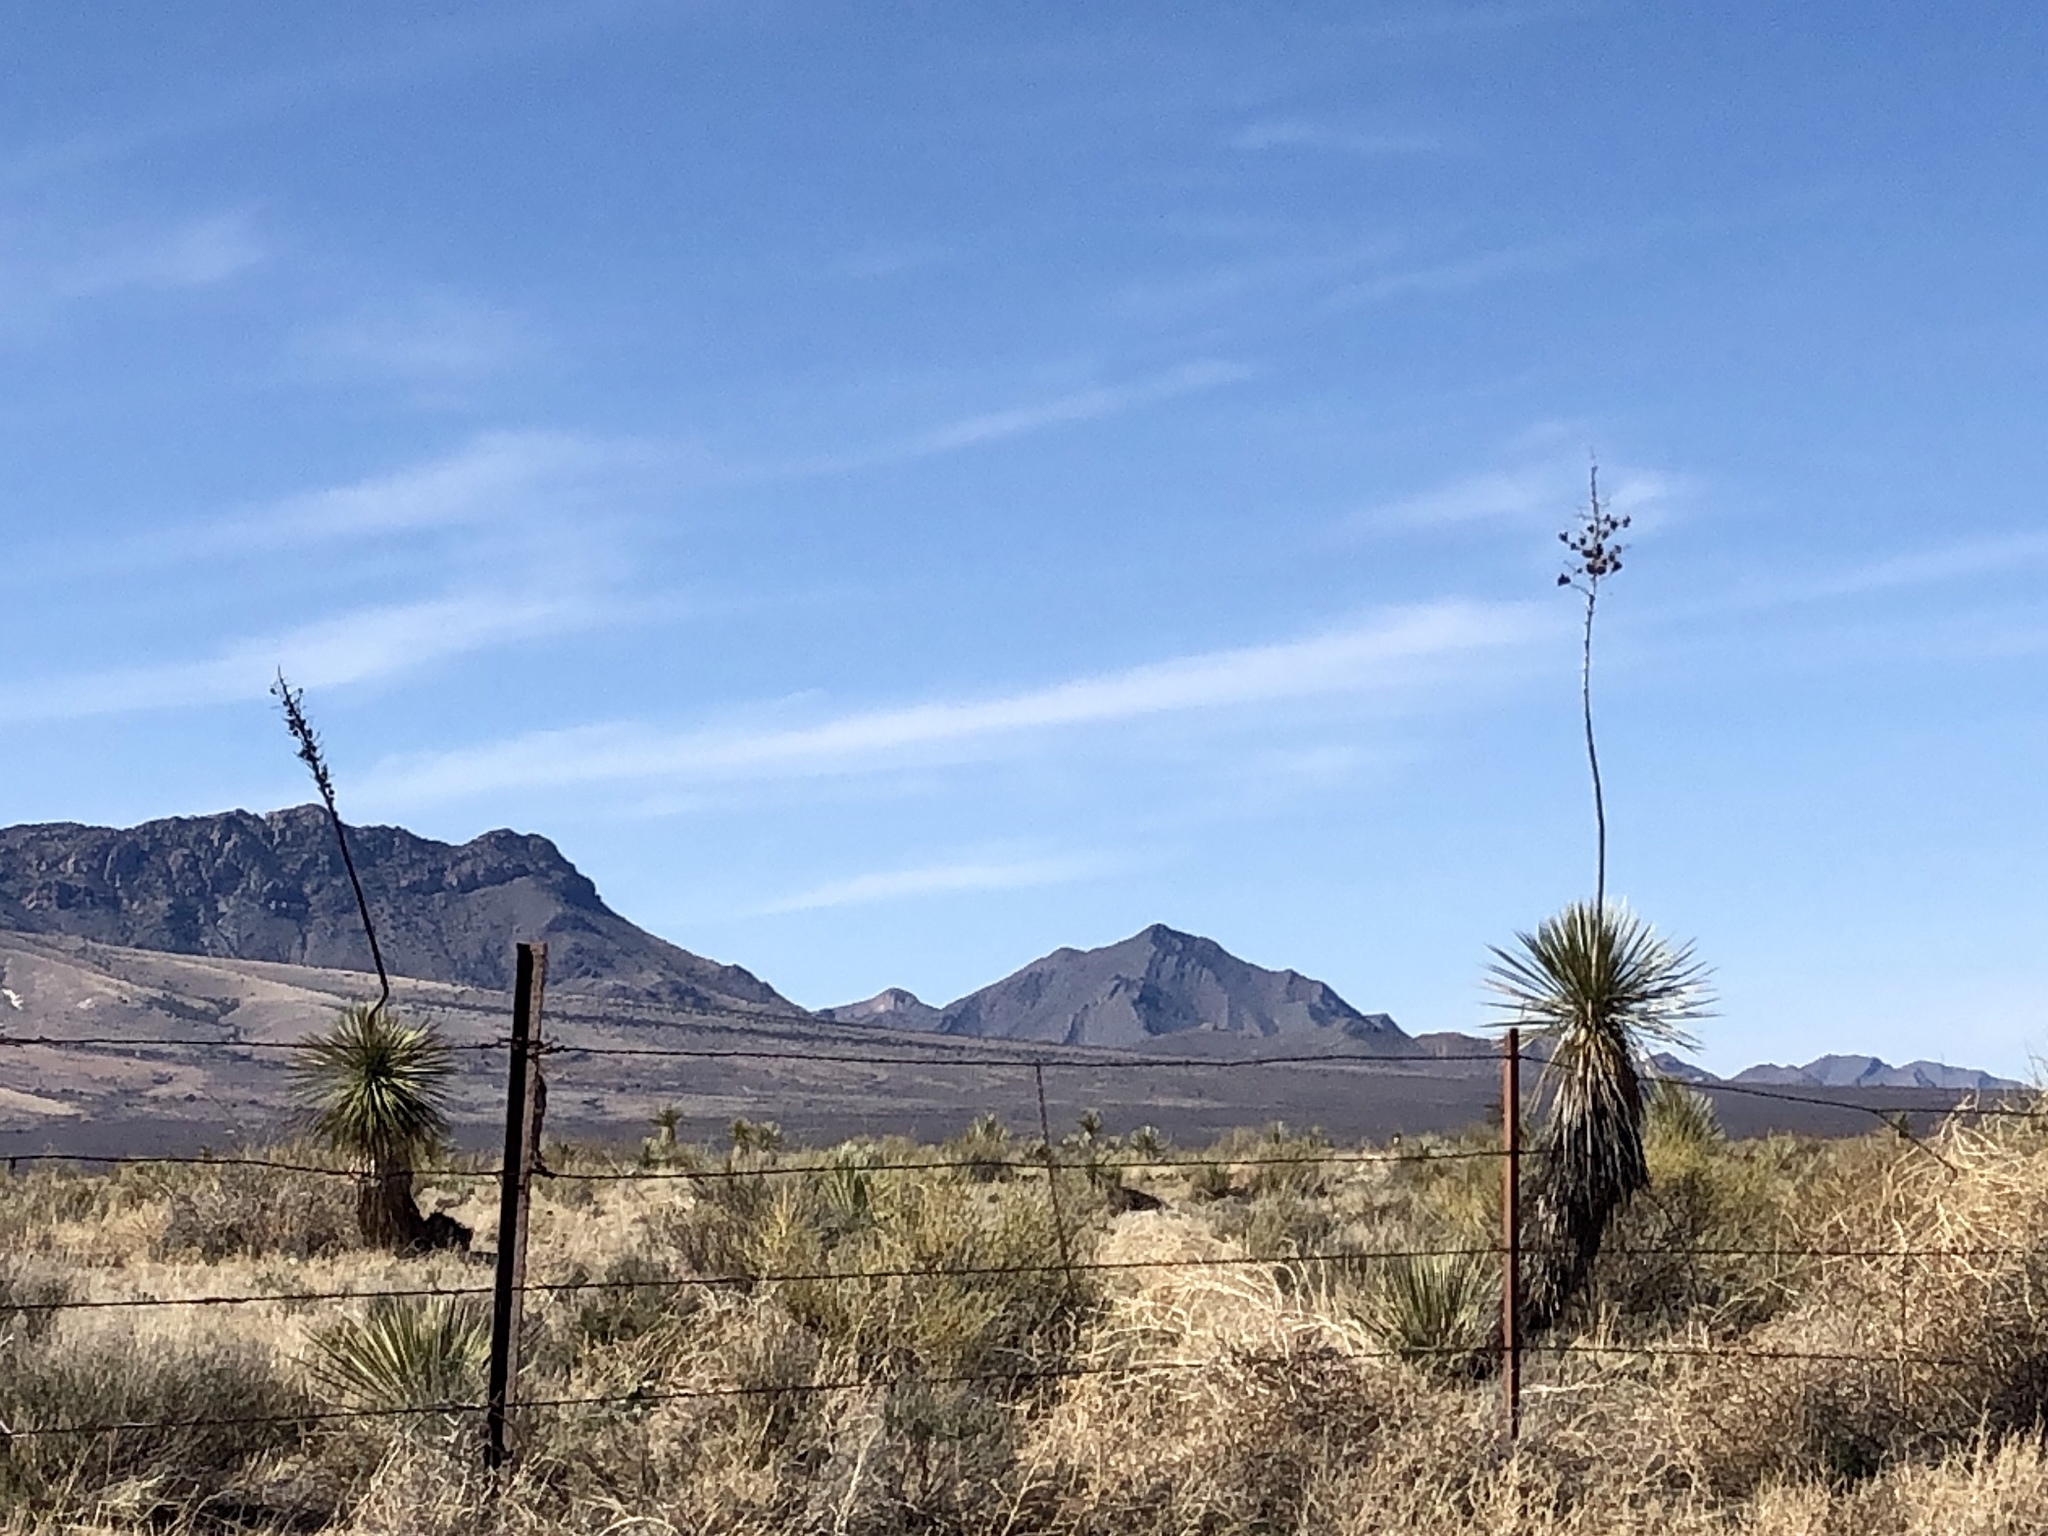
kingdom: Plantae
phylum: Tracheophyta
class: Liliopsida
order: Asparagales
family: Asparagaceae
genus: Yucca
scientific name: Yucca elata
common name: Palmella
